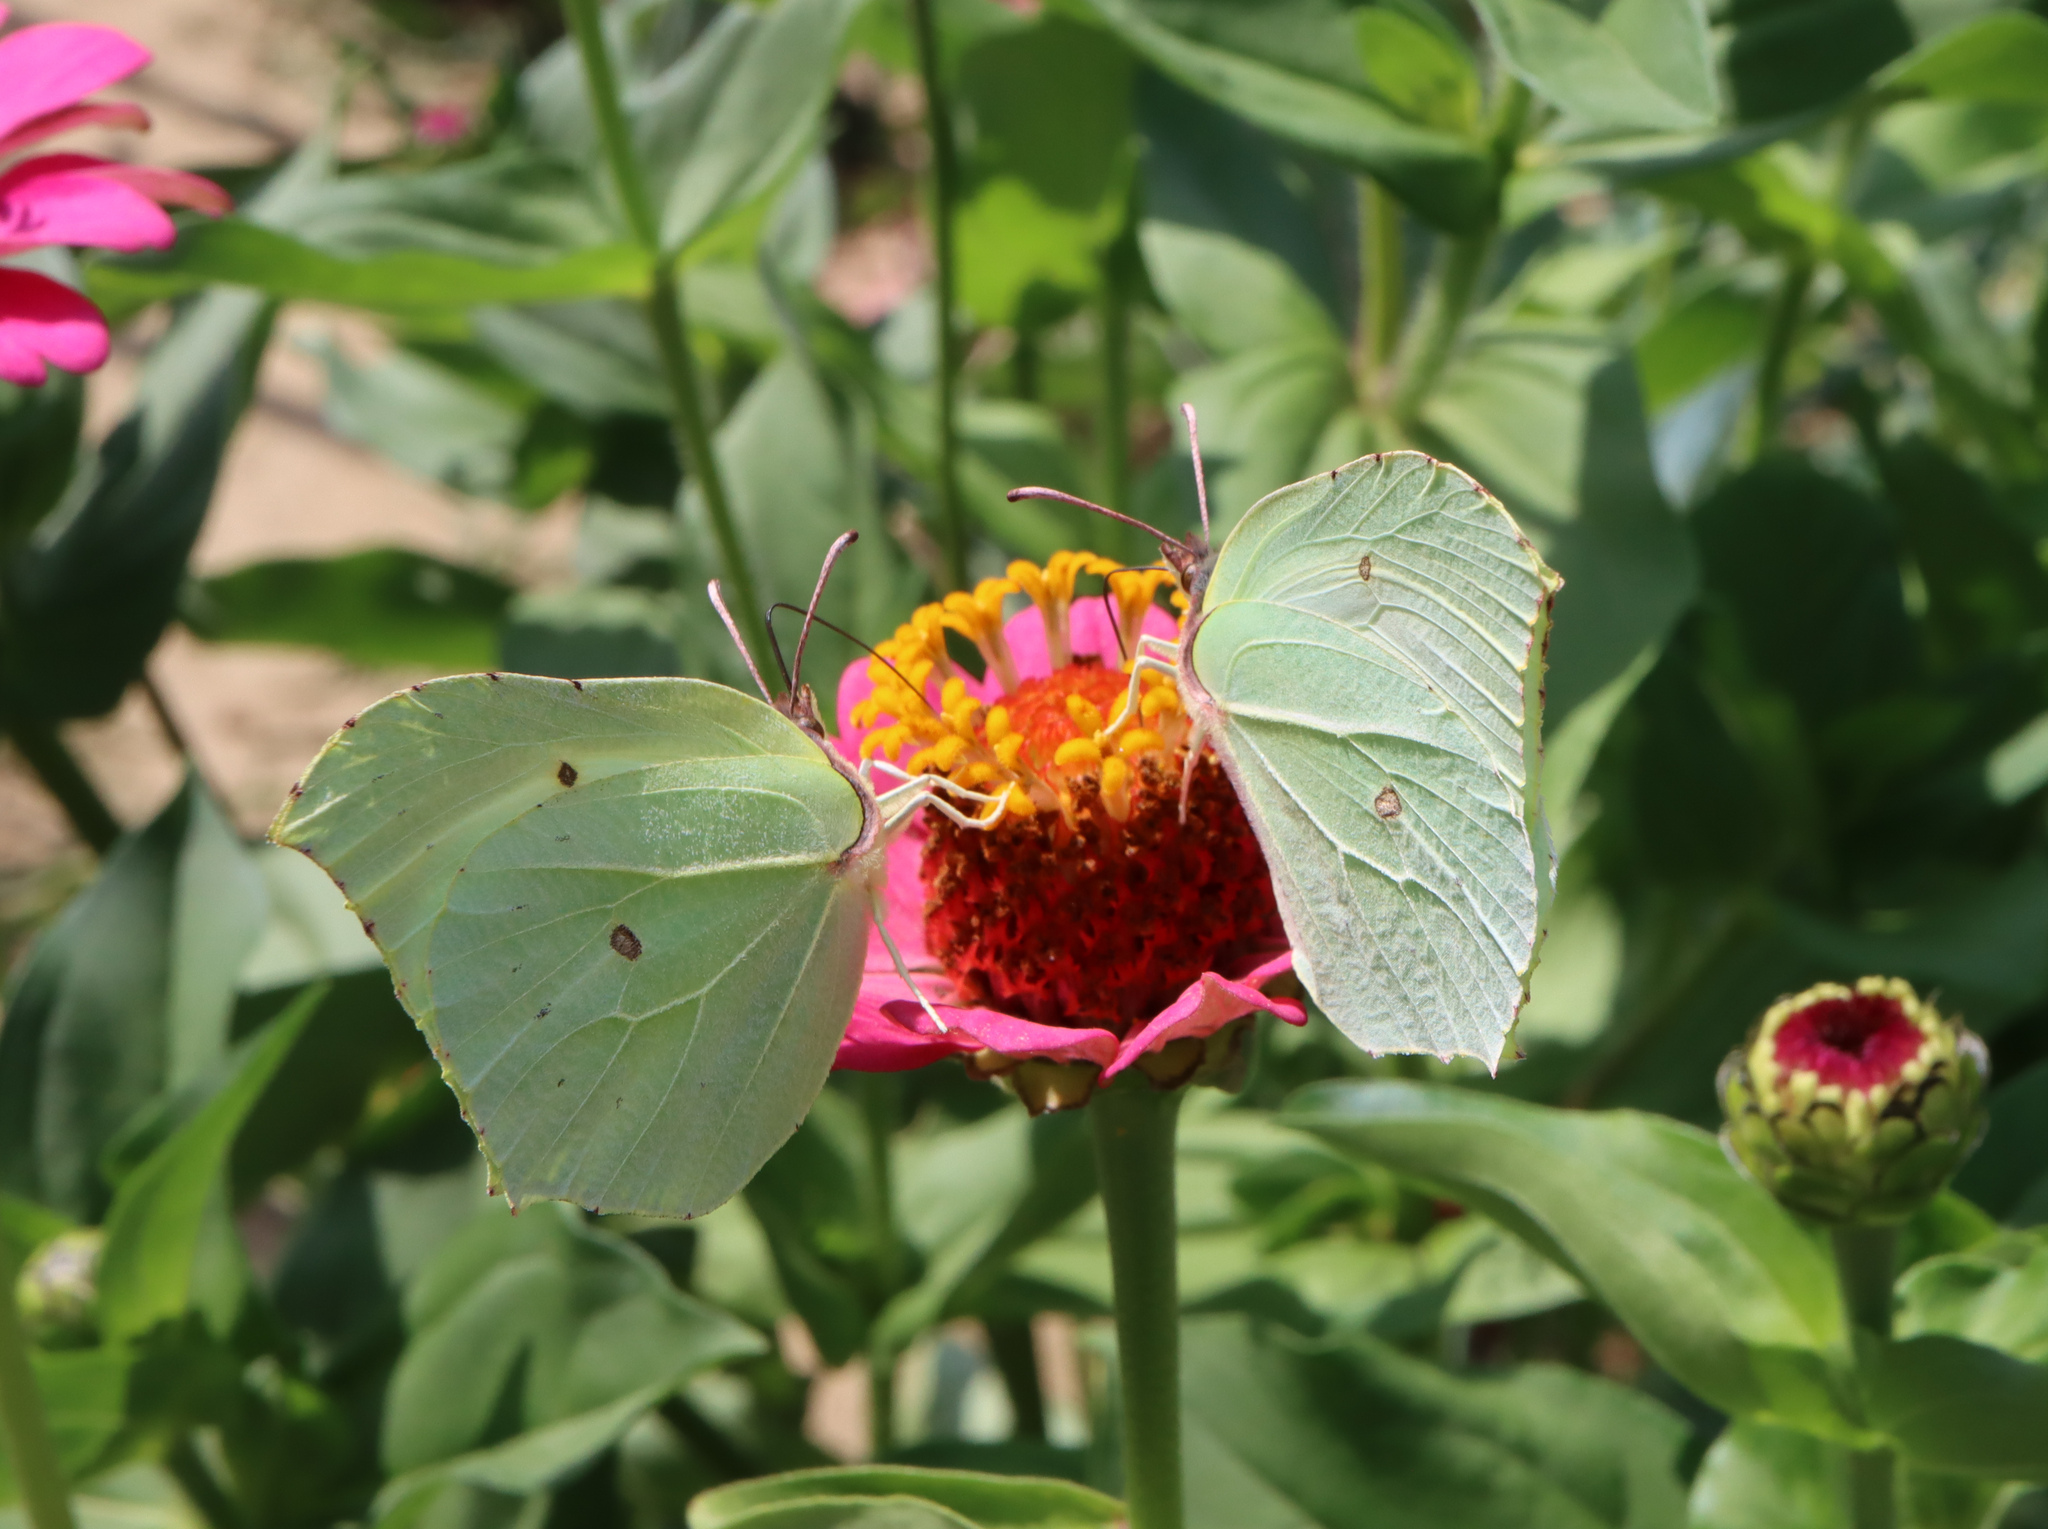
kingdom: Animalia
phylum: Arthropoda
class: Insecta
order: Lepidoptera
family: Pieridae
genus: Gonepteryx
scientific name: Gonepteryx rhamni
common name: Brimstone
